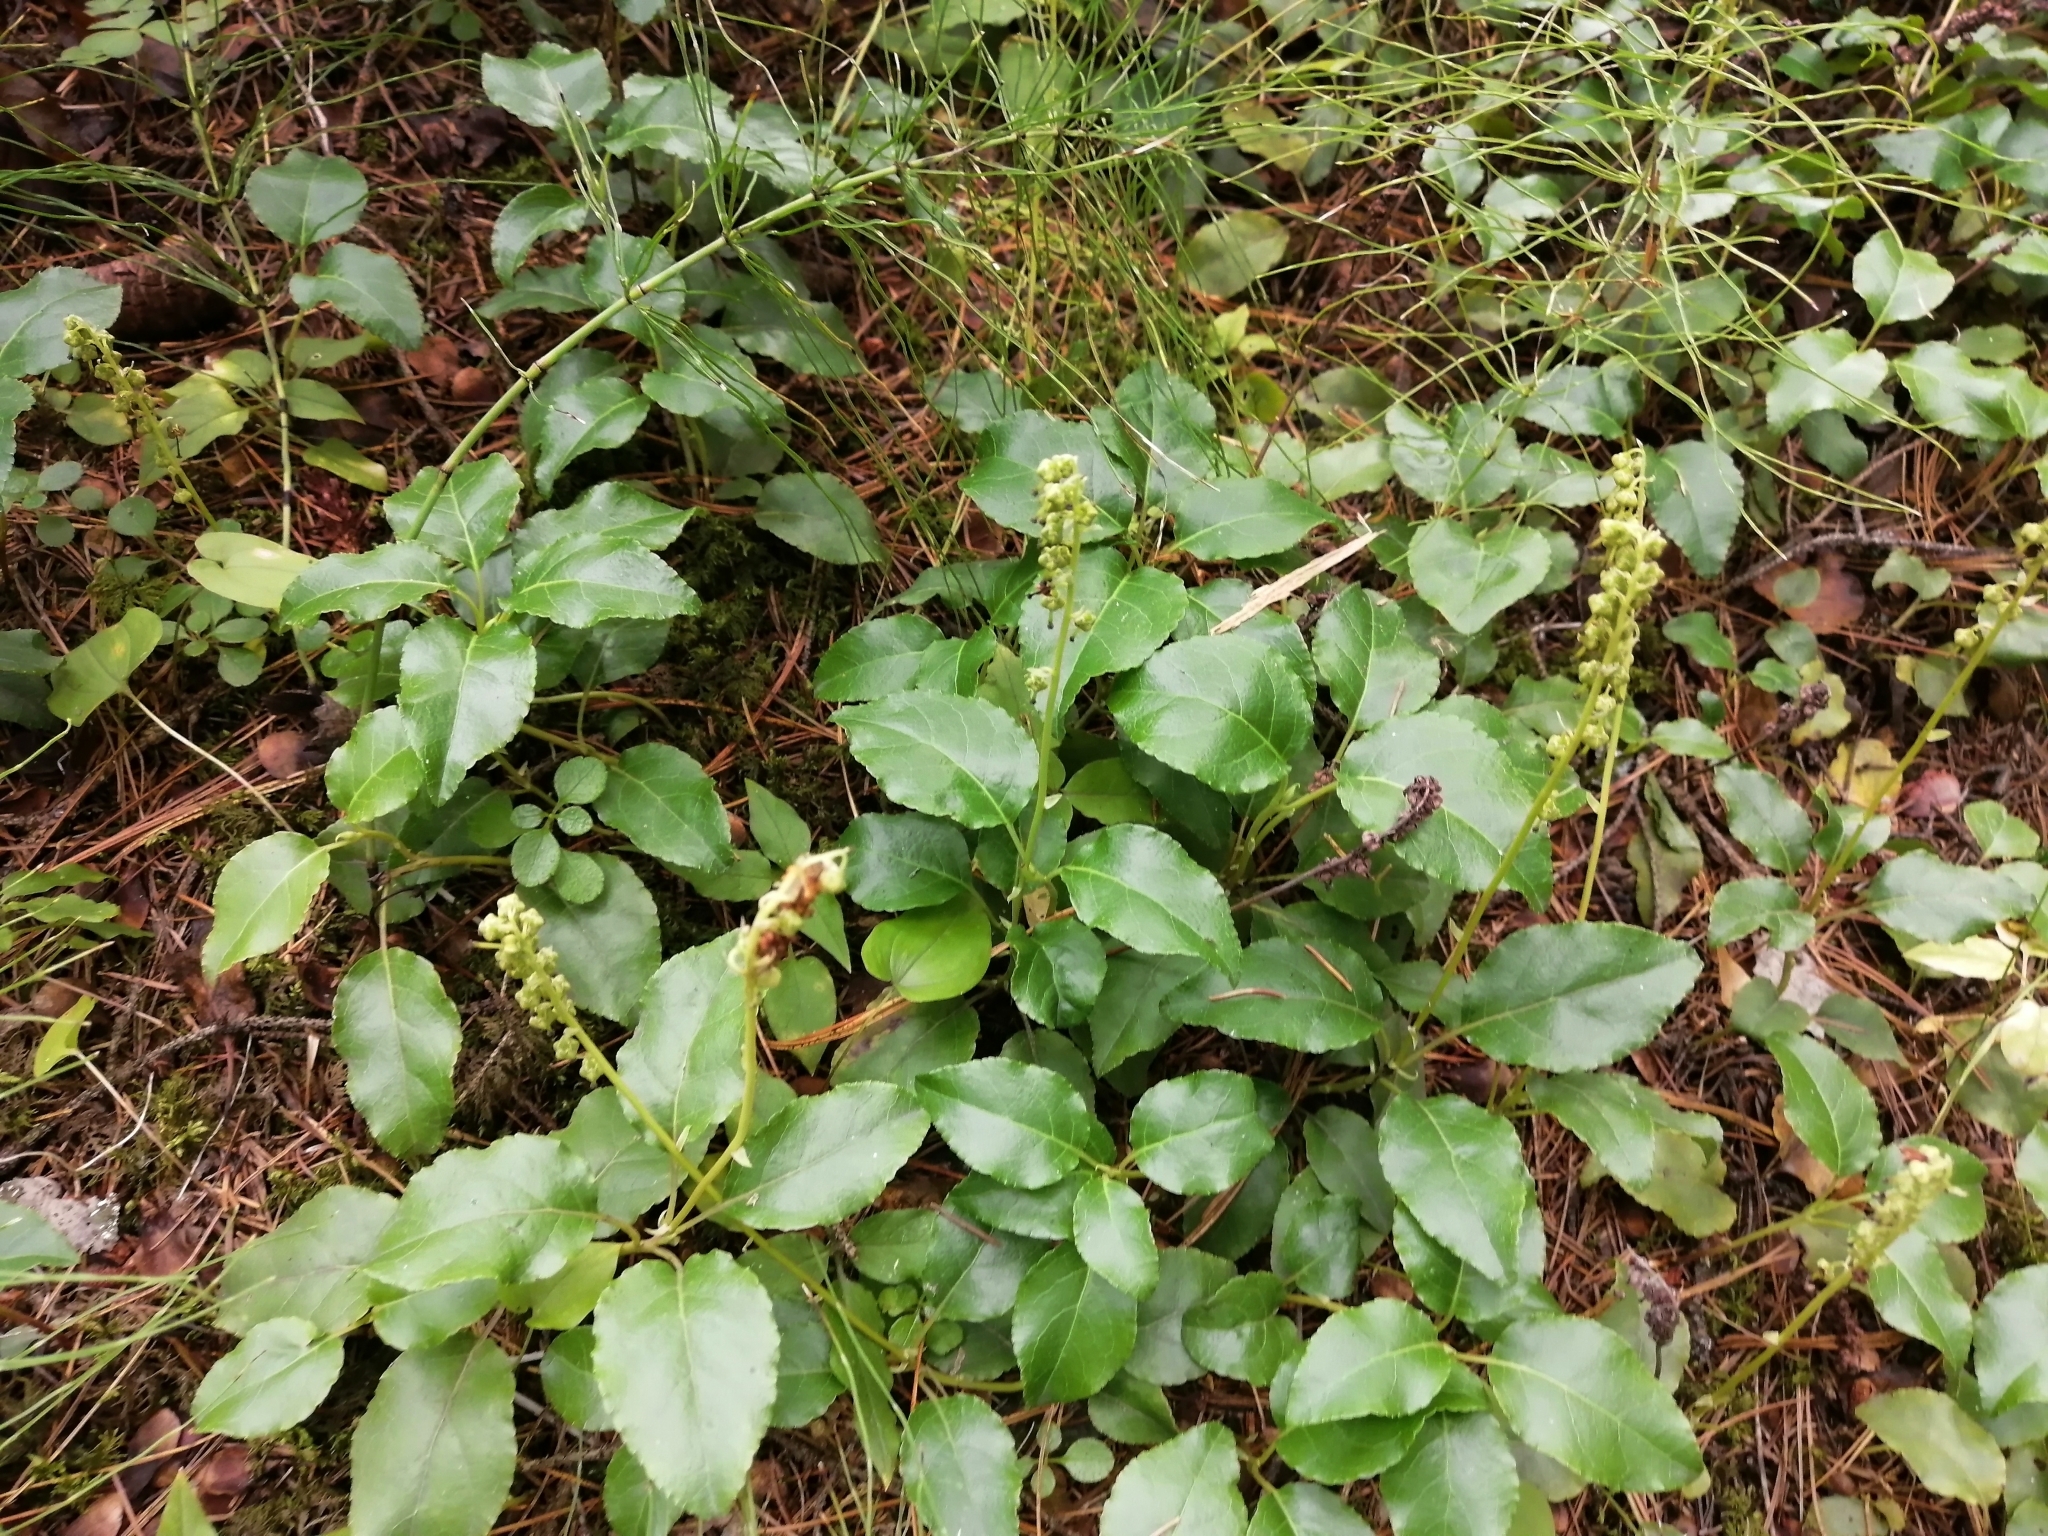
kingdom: Plantae
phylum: Tracheophyta
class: Magnoliopsida
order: Ericales
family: Ericaceae
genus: Orthilia
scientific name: Orthilia secunda
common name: One-sided orthilia
